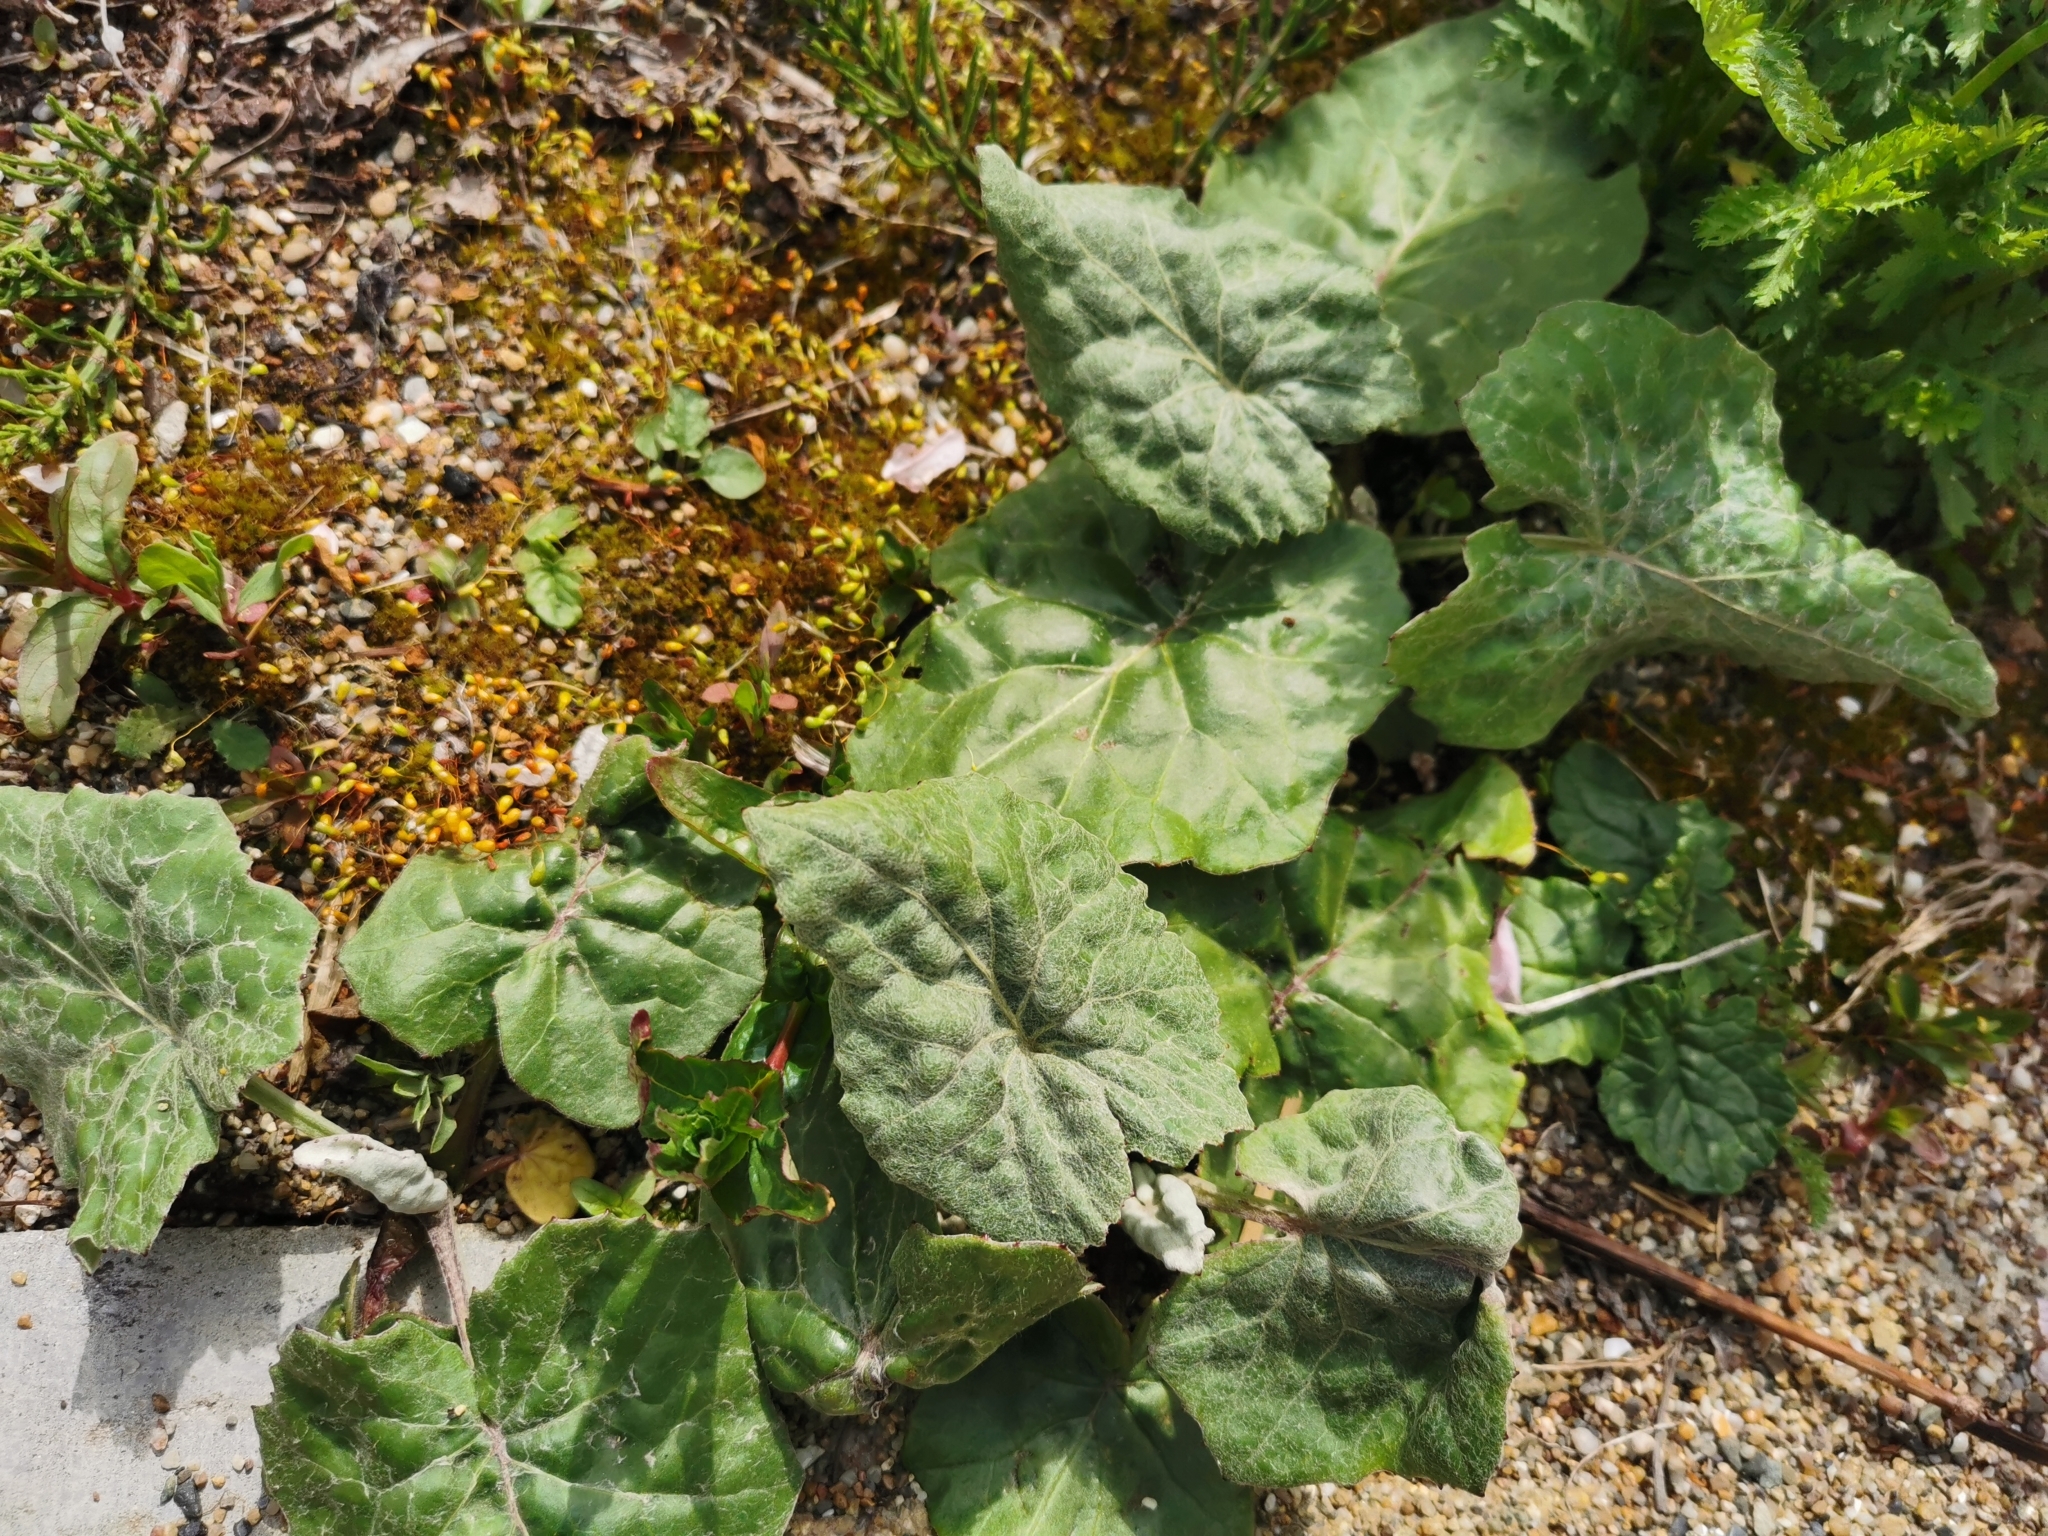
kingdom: Plantae
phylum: Tracheophyta
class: Magnoliopsida
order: Asterales
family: Asteraceae
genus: Tussilago
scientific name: Tussilago farfara
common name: Coltsfoot
